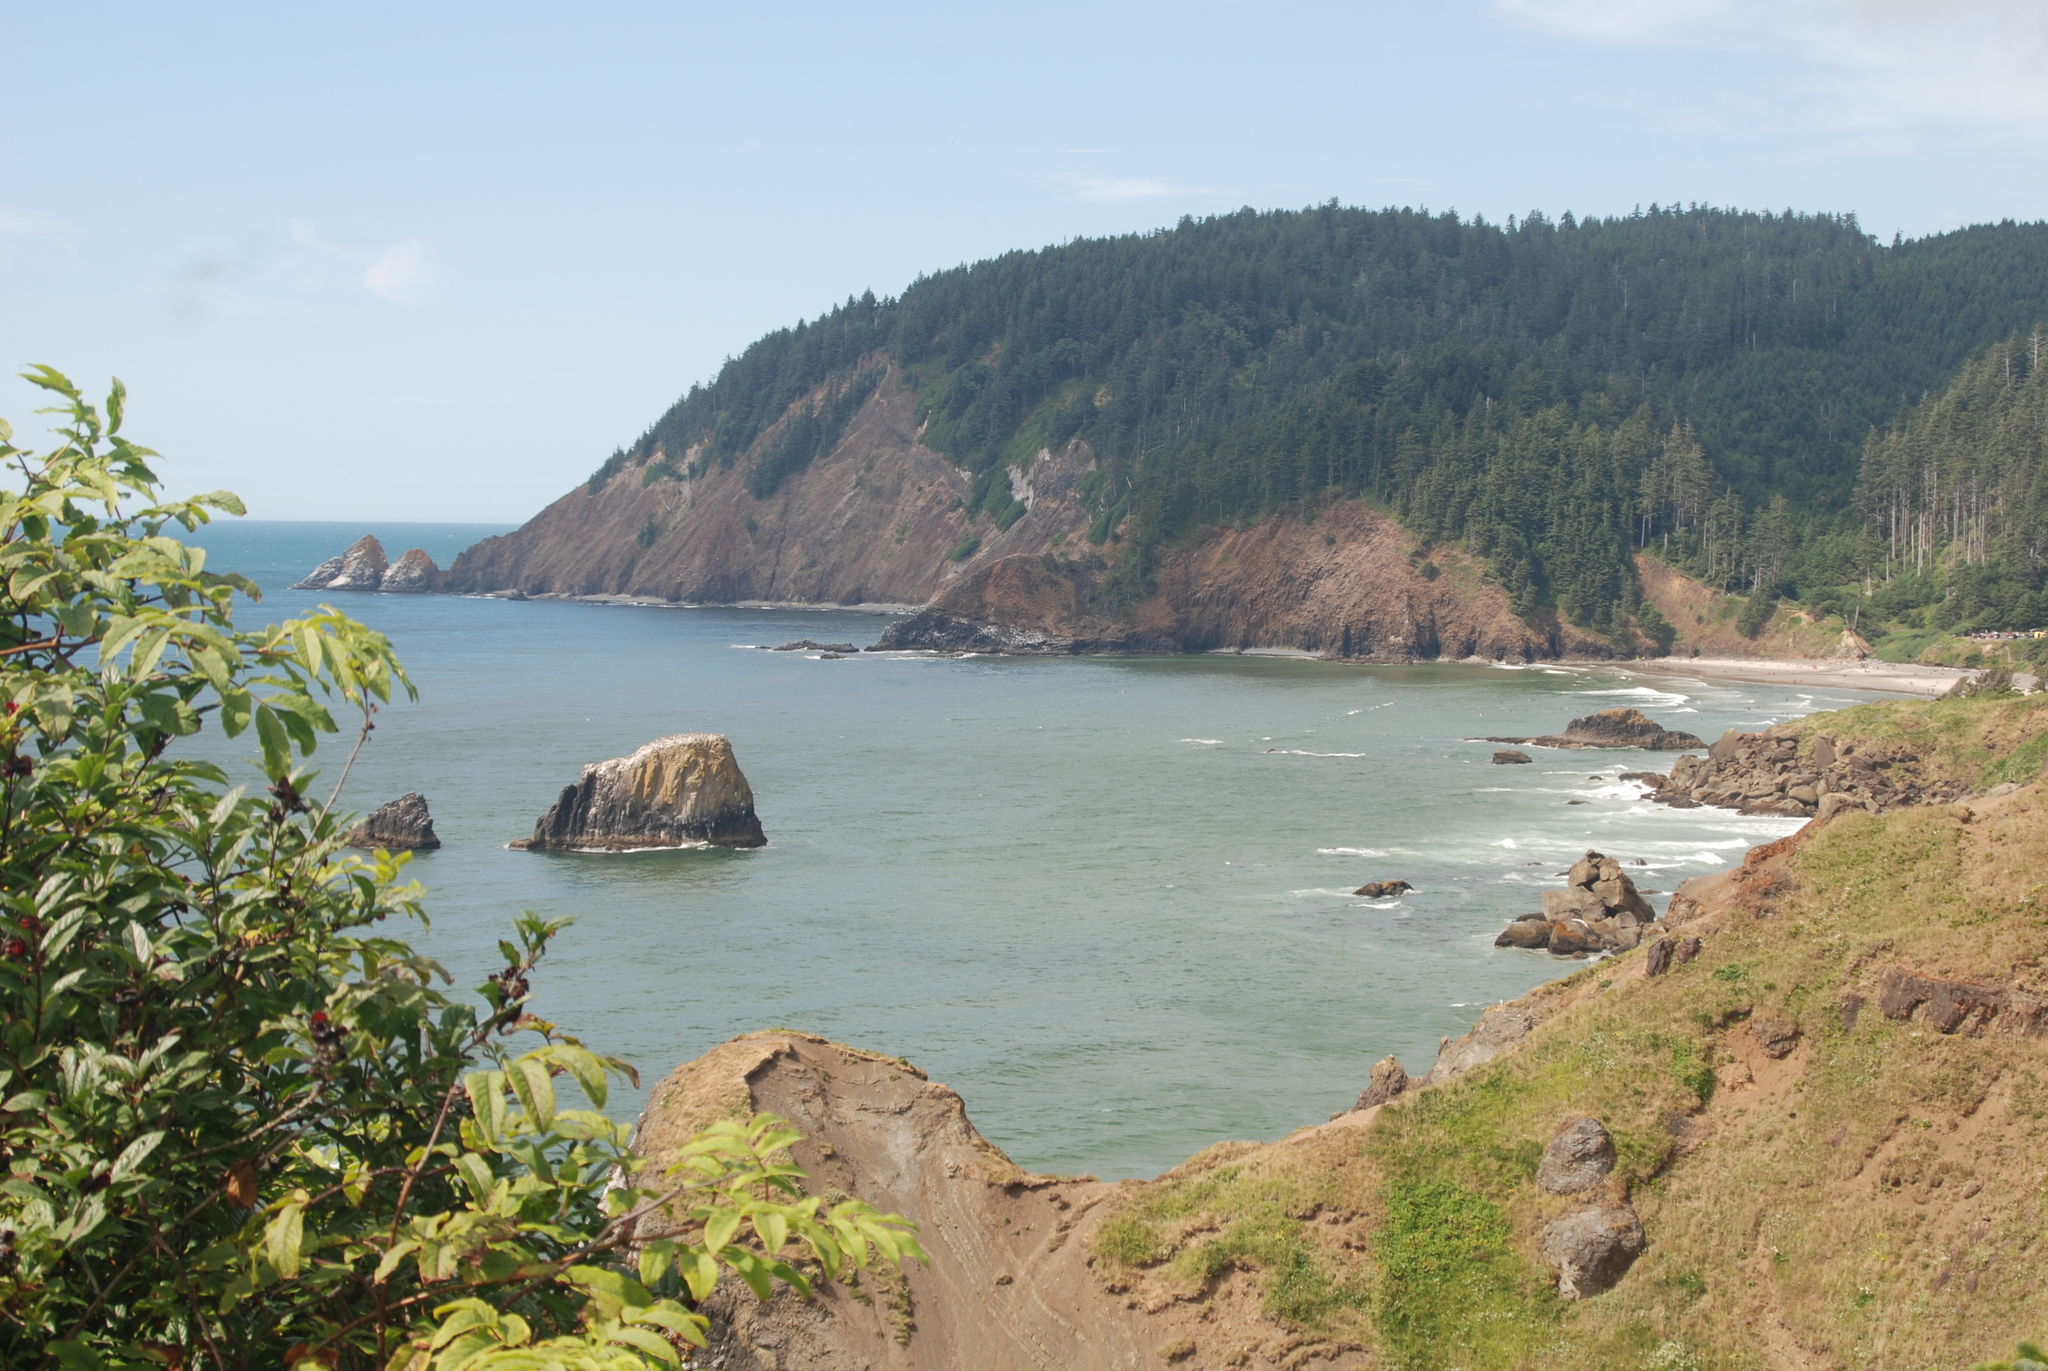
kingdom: Plantae
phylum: Tracheophyta
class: Magnoliopsida
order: Dipsacales
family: Caprifoliaceae
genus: Lonicera
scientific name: Lonicera involucrata
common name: Californian honeysuckle
